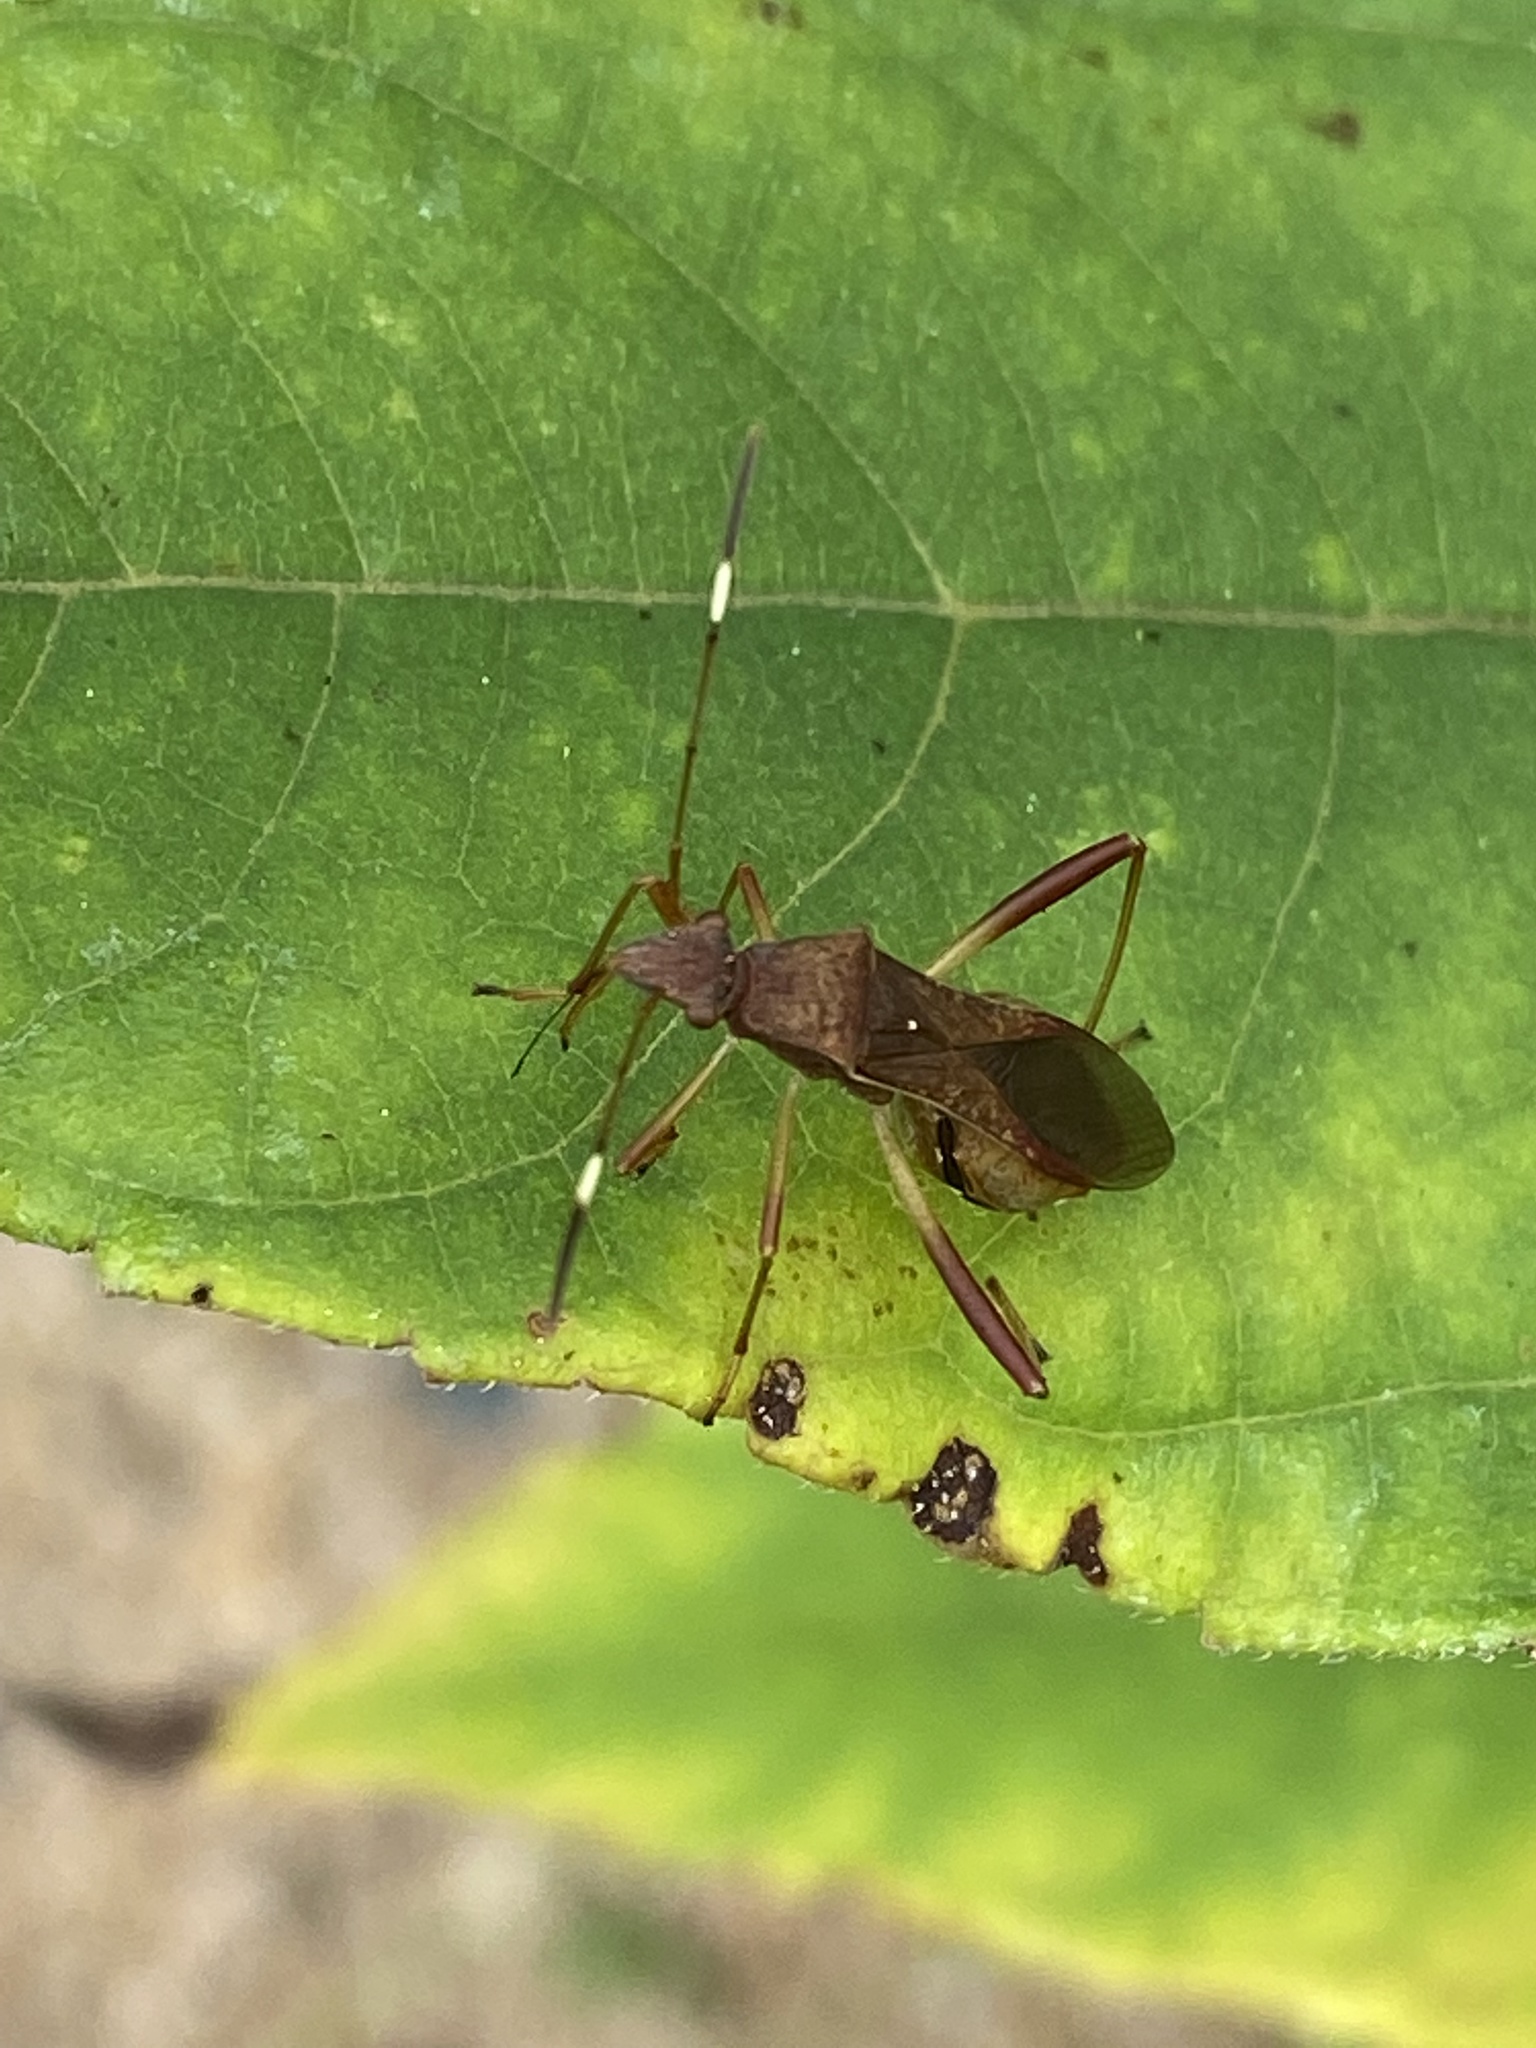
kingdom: Animalia
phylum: Arthropoda
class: Insecta
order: Hemiptera
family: Alydidae
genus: Megalotomus
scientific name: Megalotomus quinquespinosus
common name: Lupine bug
